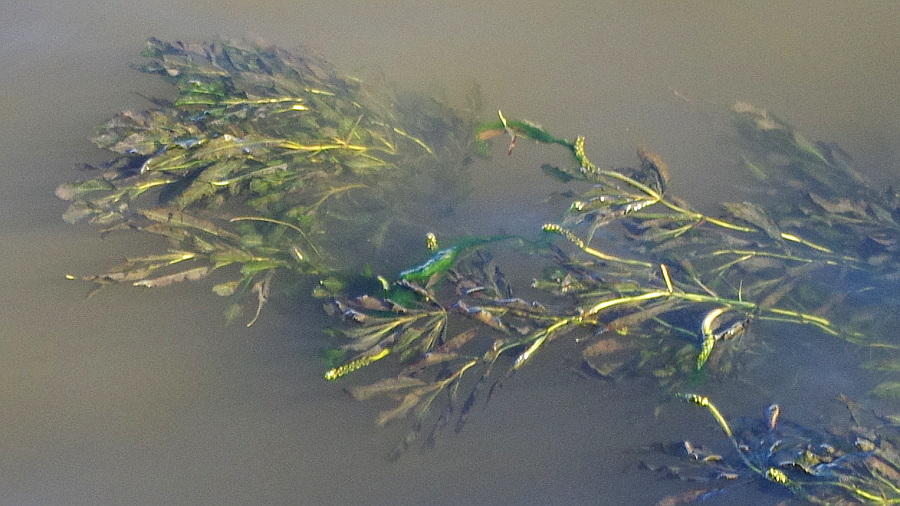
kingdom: Plantae
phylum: Tracheophyta
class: Liliopsida
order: Alismatales
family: Potamogetonaceae
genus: Potamogeton
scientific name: Potamogeton lucens
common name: Shining pondweed
